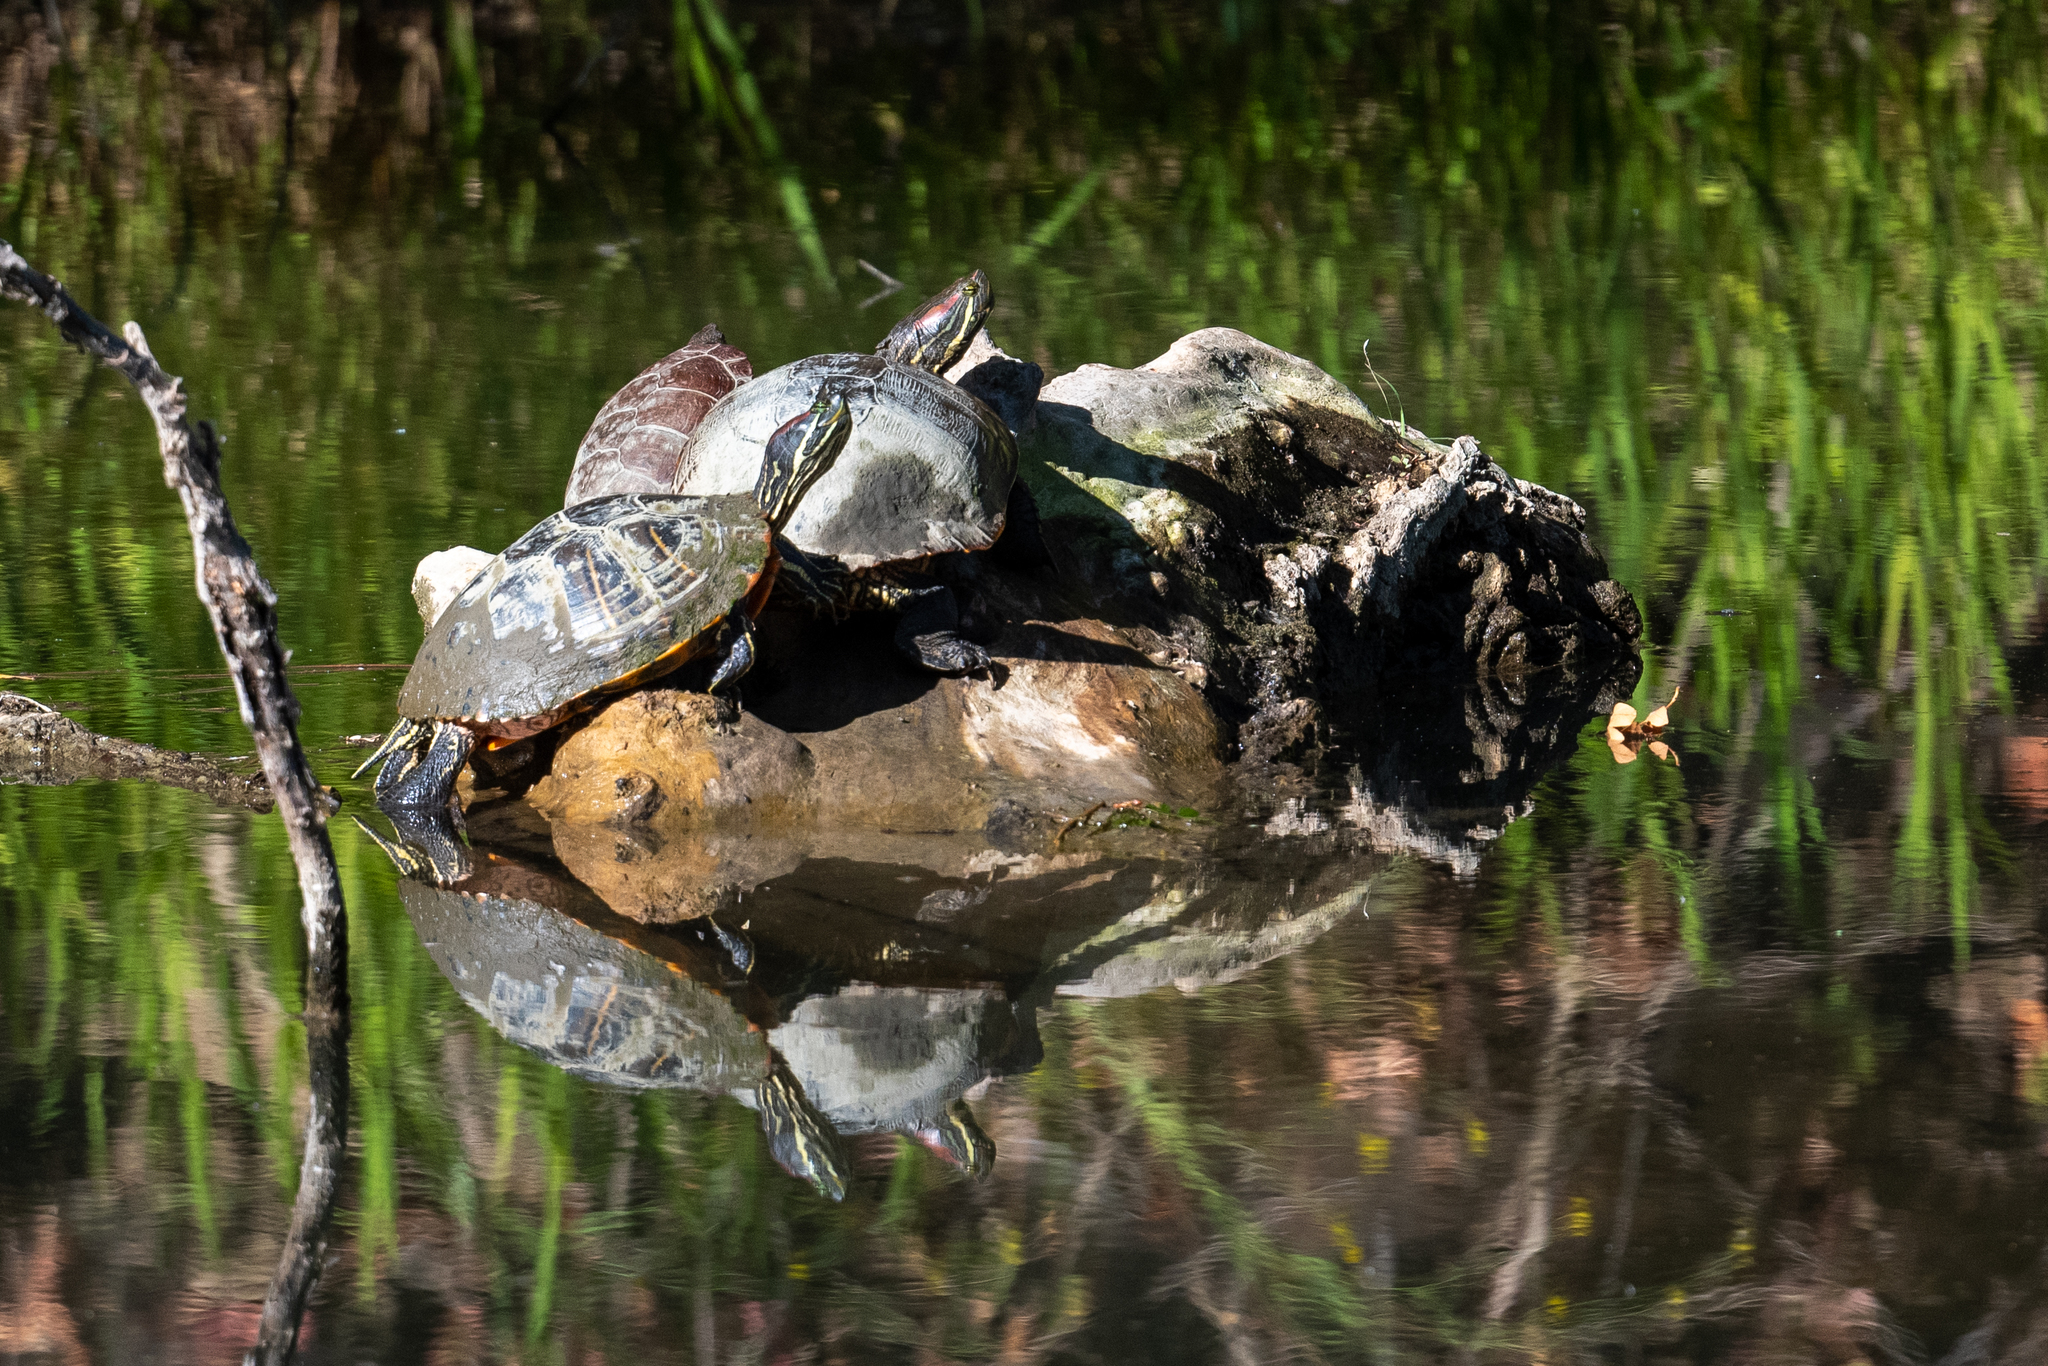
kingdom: Animalia
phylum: Chordata
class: Testudines
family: Emydidae
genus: Trachemys
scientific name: Trachemys scripta
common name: Slider
